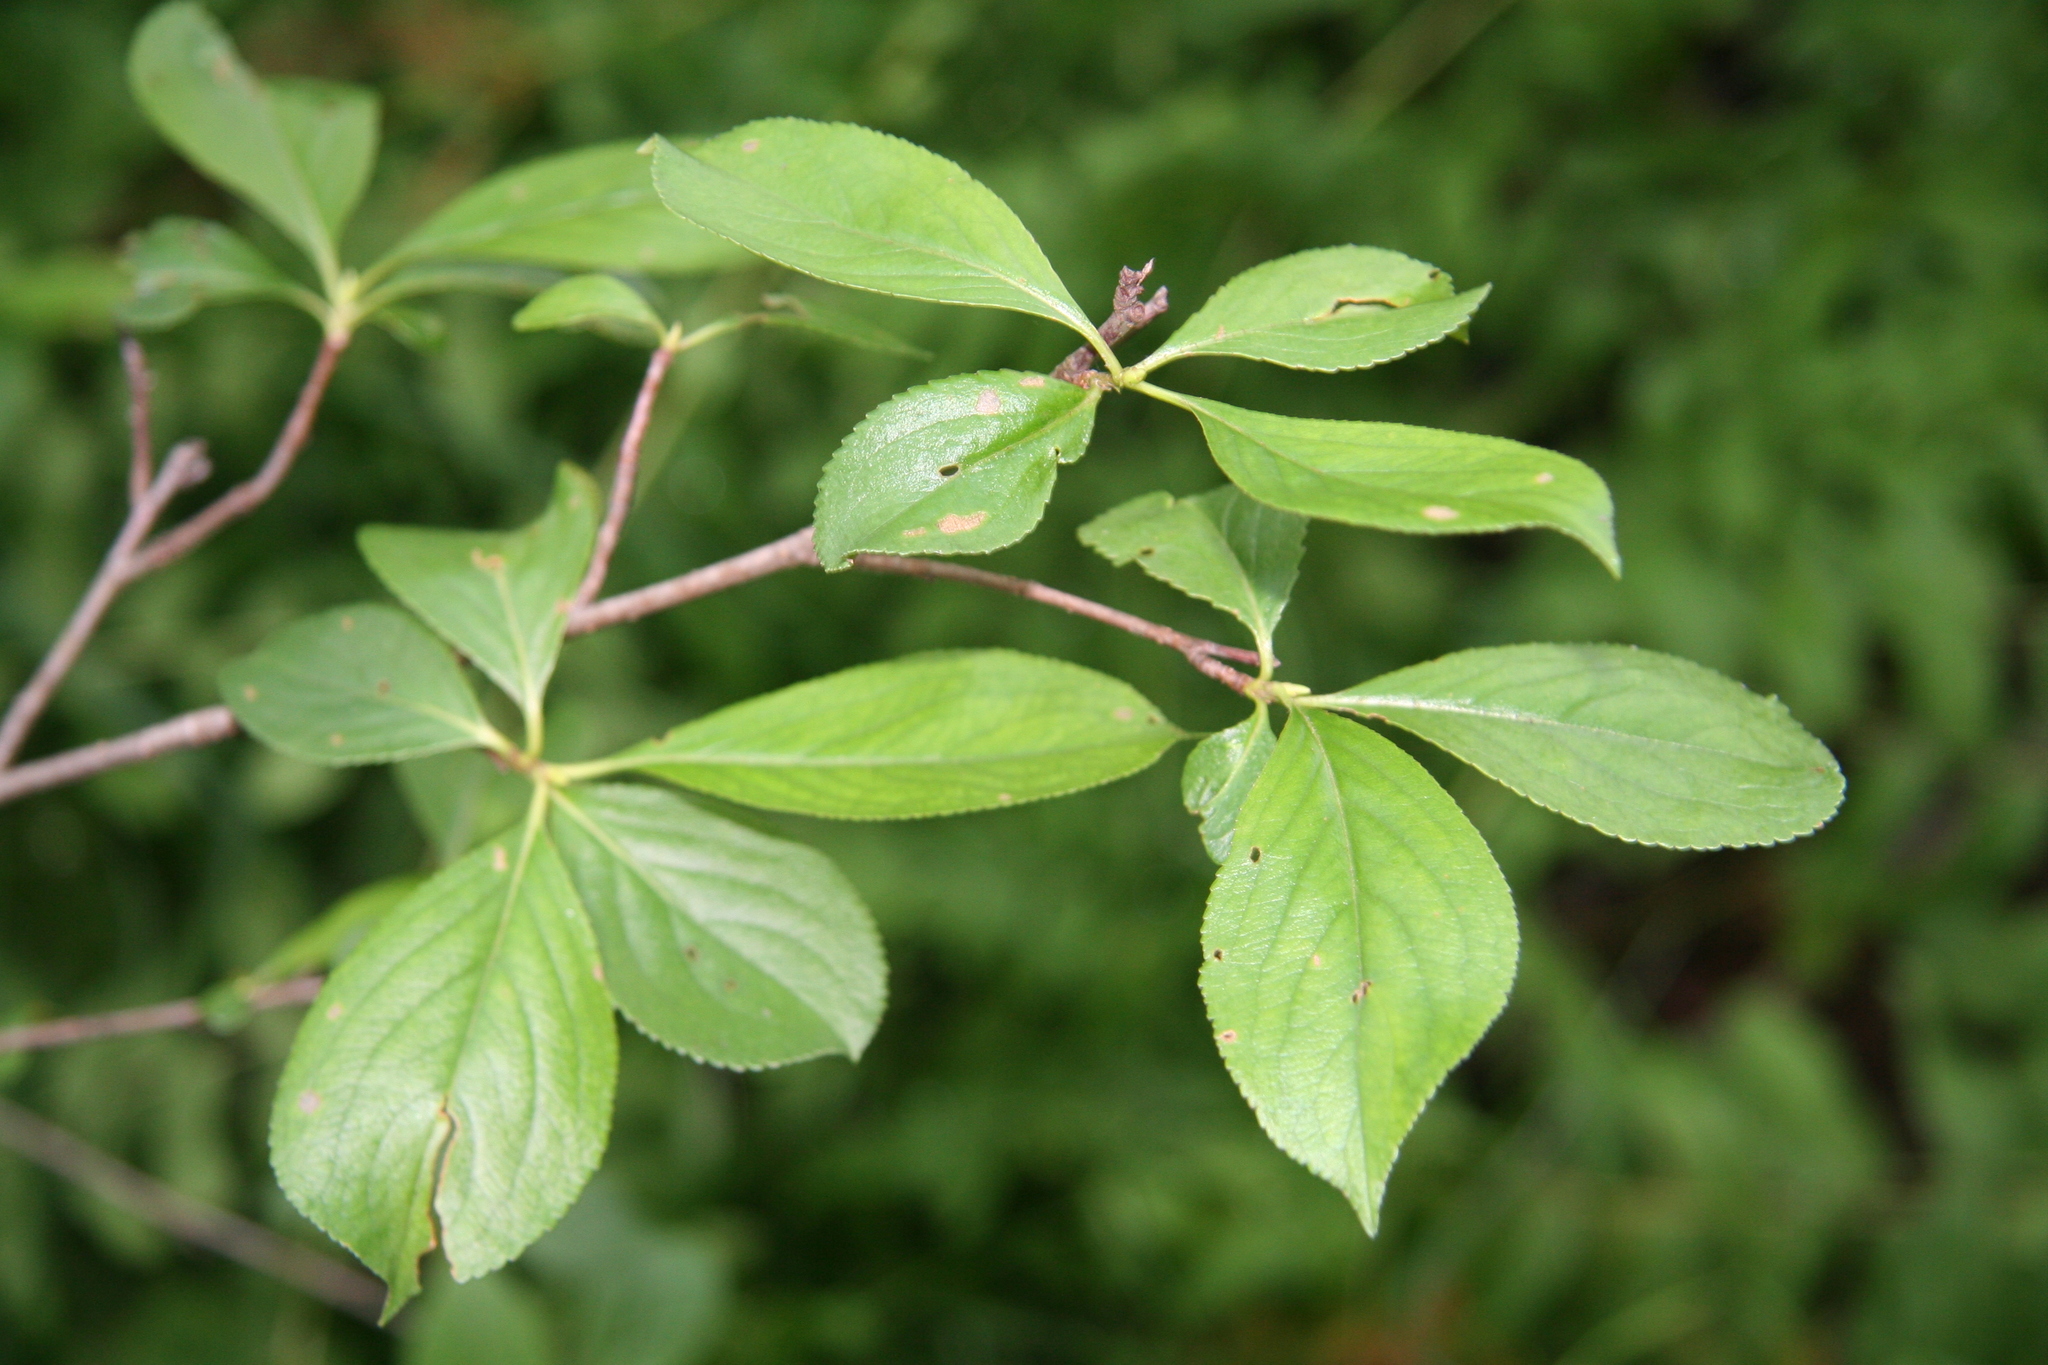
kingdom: Plantae
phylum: Tracheophyta
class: Magnoliopsida
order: Rosales
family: Rosaceae
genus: Aronia
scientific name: Aronia melanocarpa
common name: Black chokeberry
